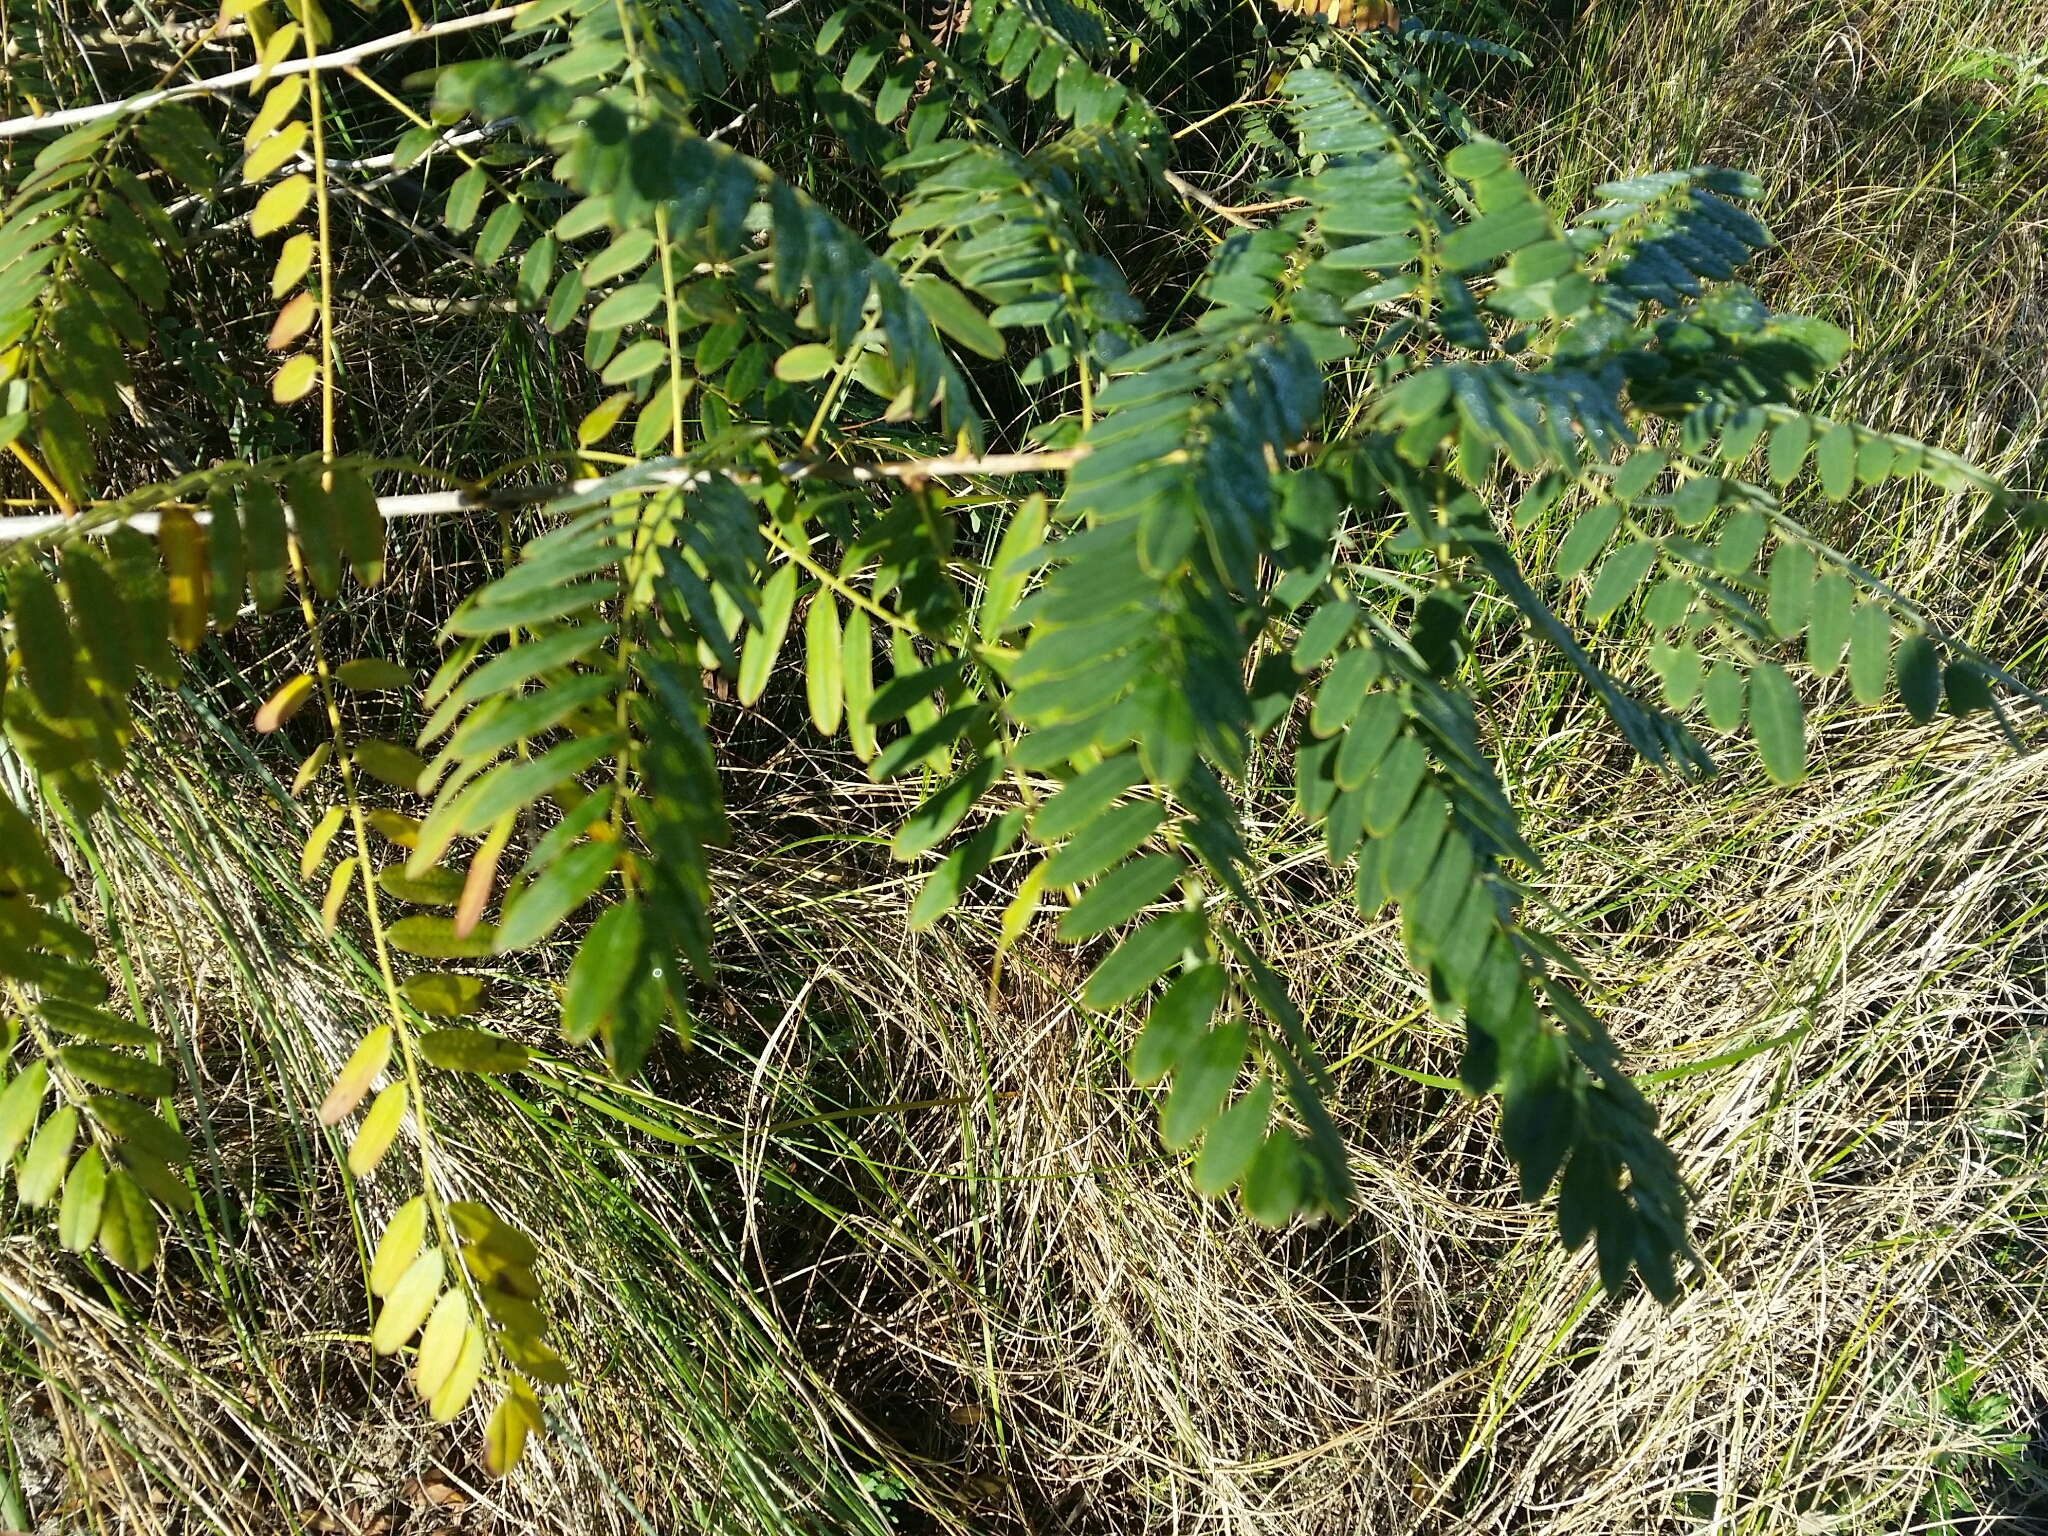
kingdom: Plantae
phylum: Tracheophyta
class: Magnoliopsida
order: Fabales
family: Fabaceae
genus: Amorpha
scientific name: Amorpha fruticosa
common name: False indigo
